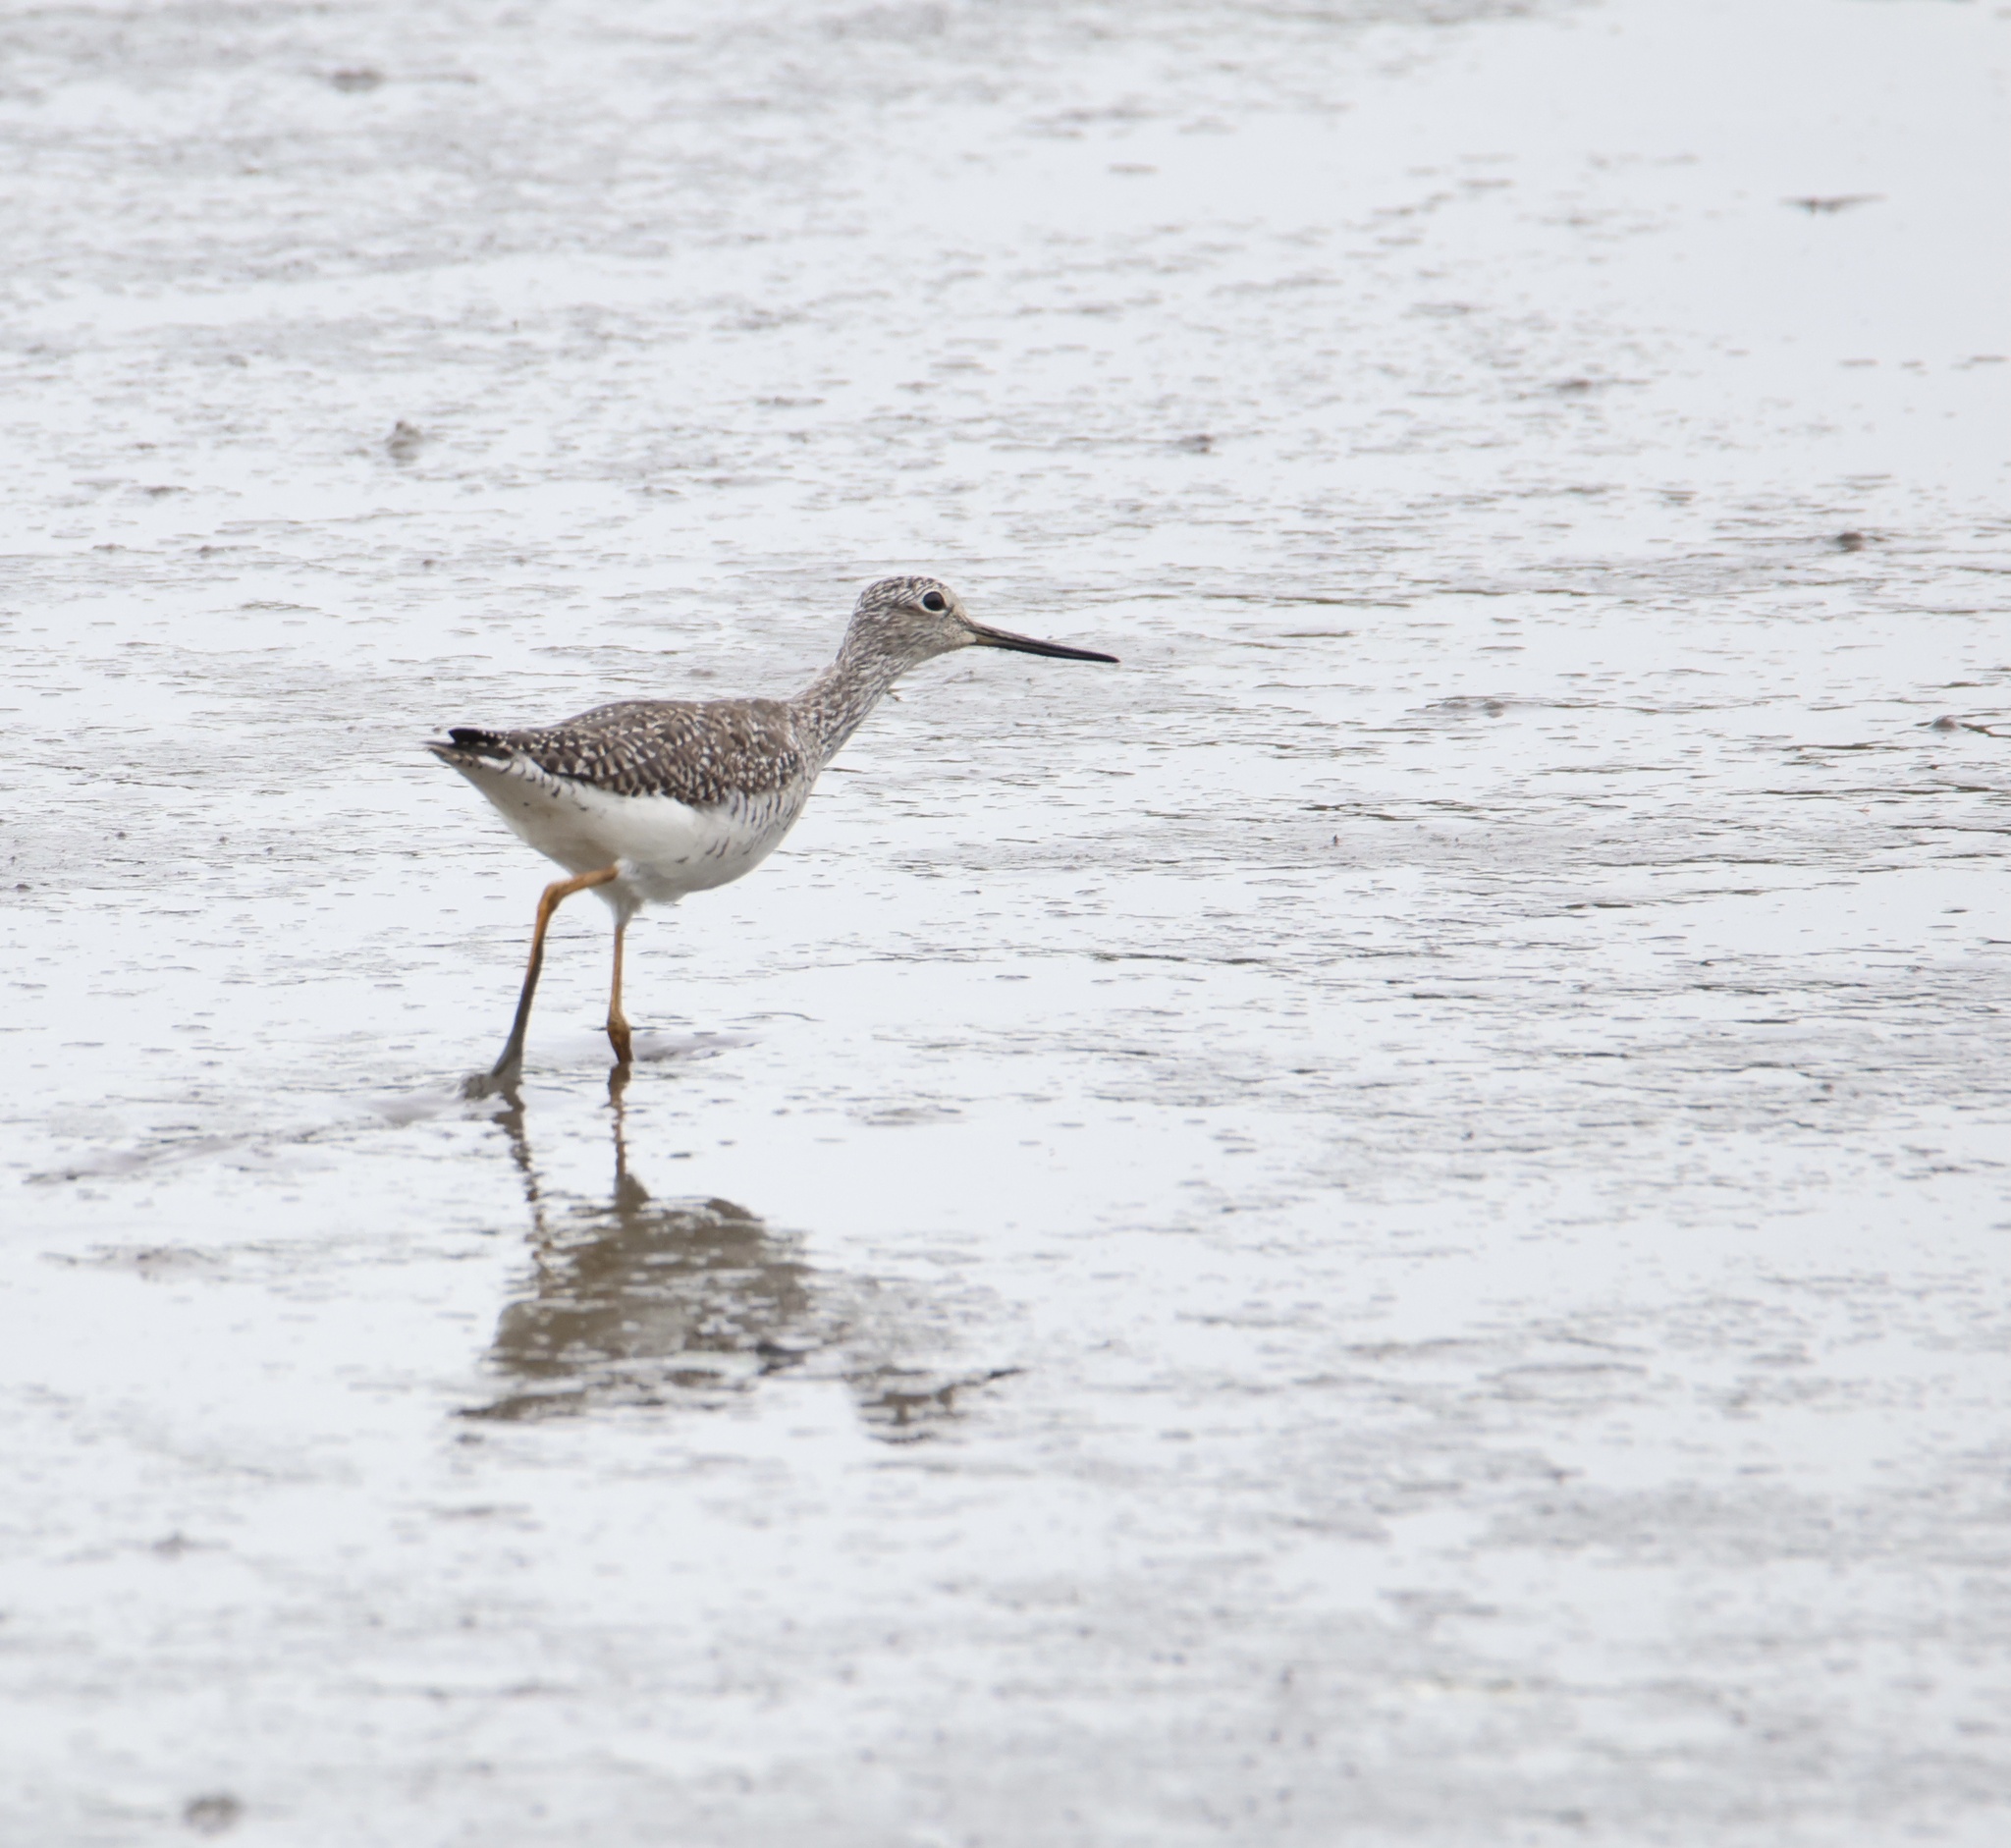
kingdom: Animalia
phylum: Chordata
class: Aves
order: Charadriiformes
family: Scolopacidae
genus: Tringa
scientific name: Tringa melanoleuca
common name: Greater yellowlegs
